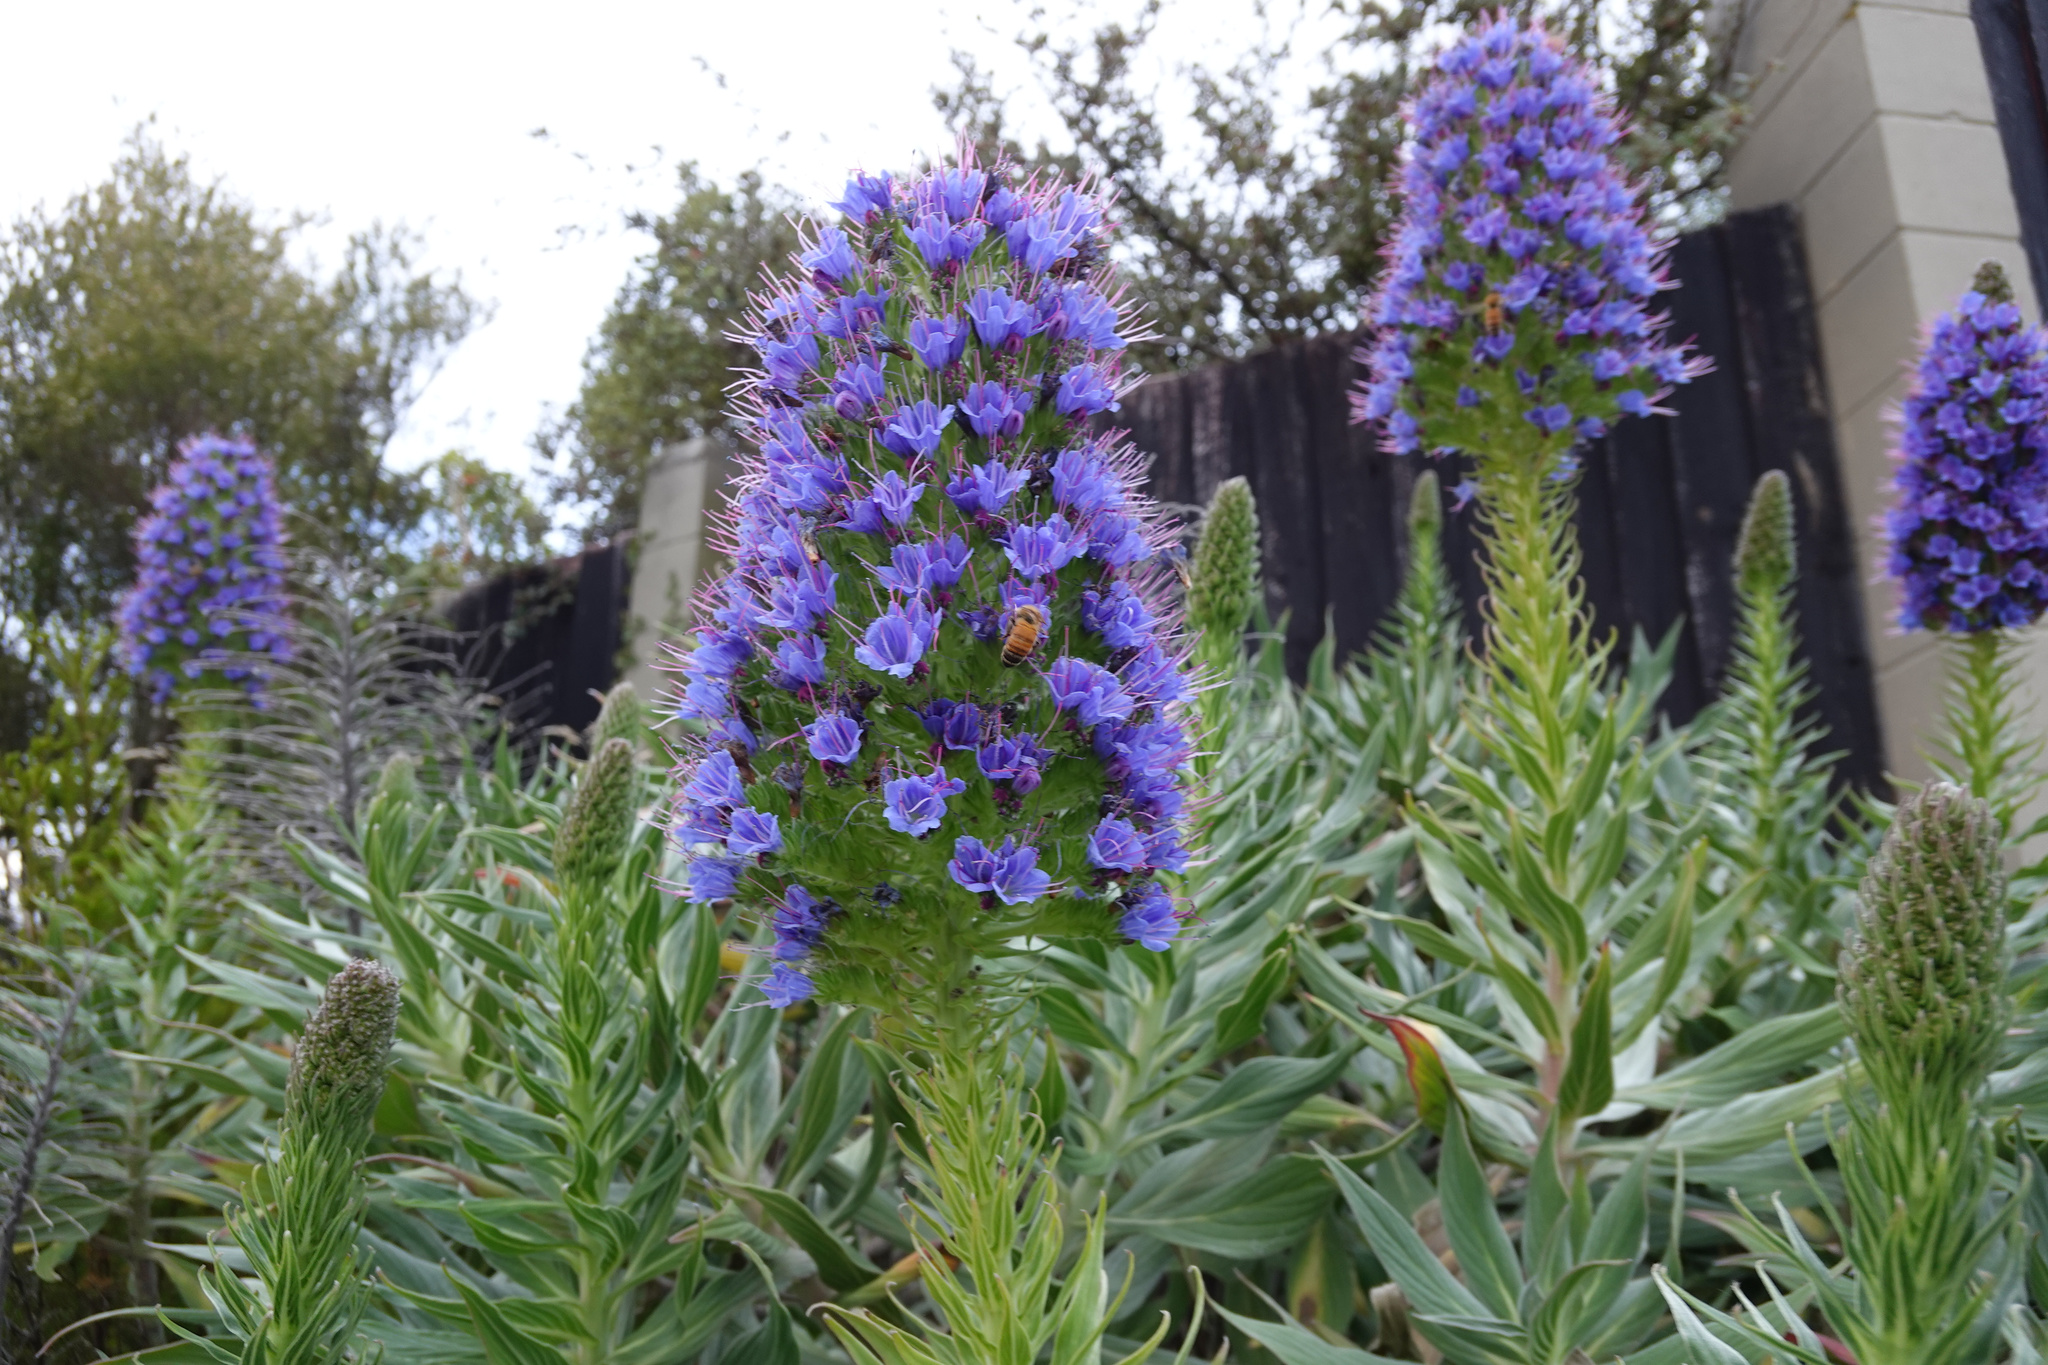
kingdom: Plantae
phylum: Tracheophyta
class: Magnoliopsida
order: Boraginales
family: Boraginaceae
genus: Echium
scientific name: Echium candicans
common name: Pride of madeira
